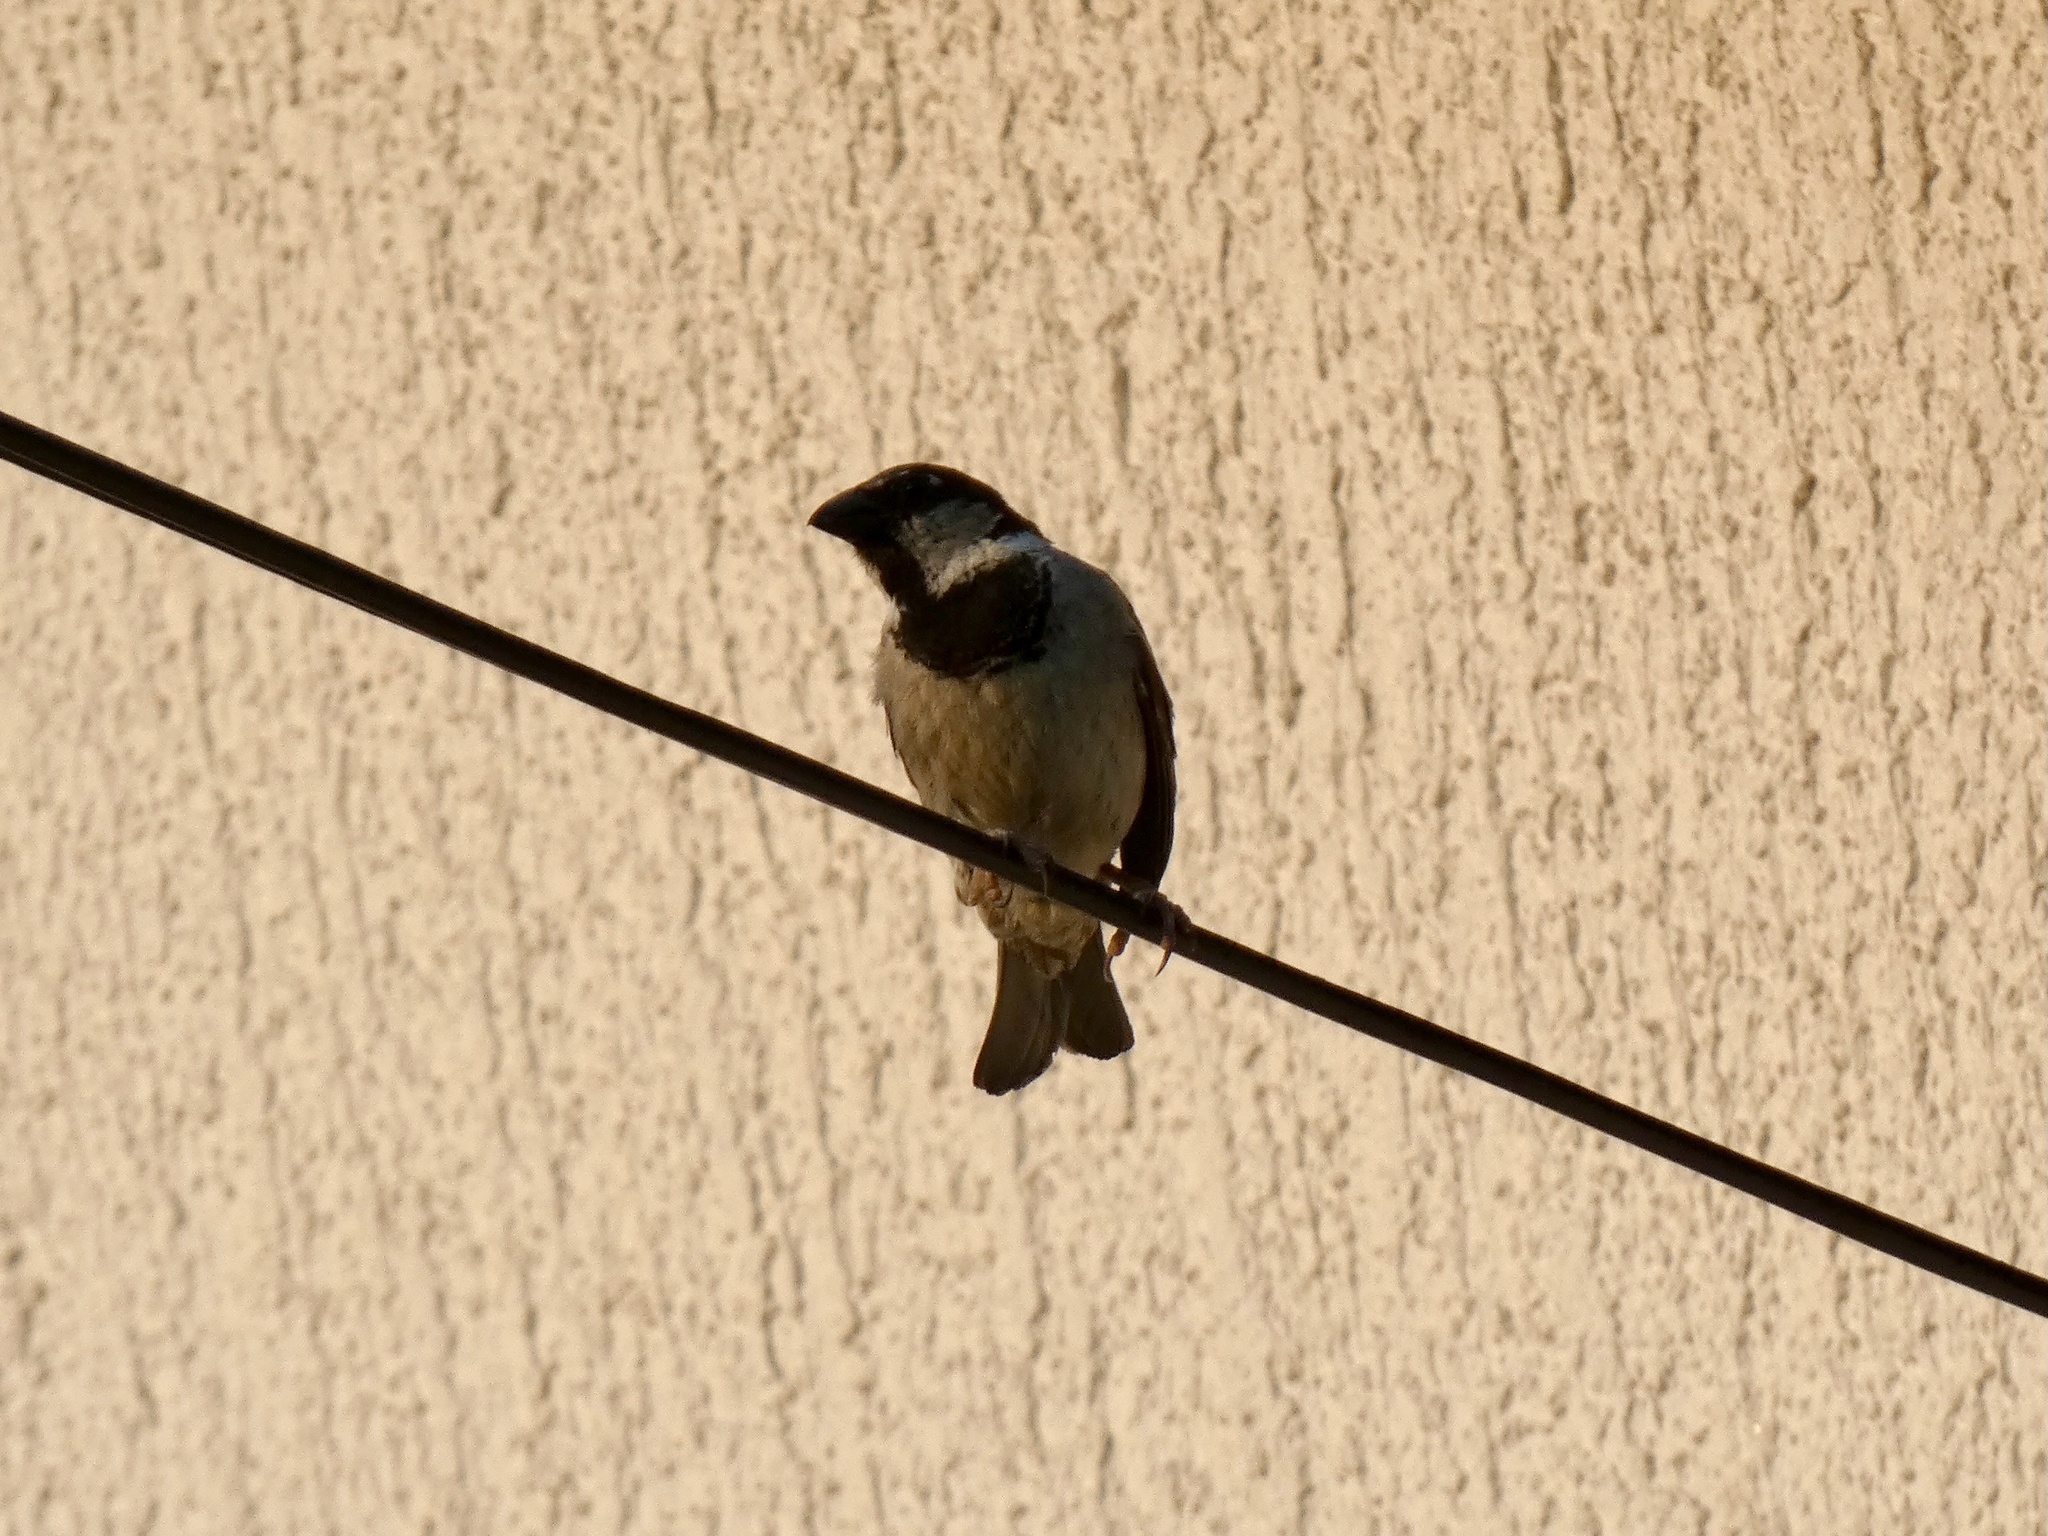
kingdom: Animalia
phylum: Chordata
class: Aves
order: Passeriformes
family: Passeridae
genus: Passer
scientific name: Passer domesticus
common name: House sparrow
